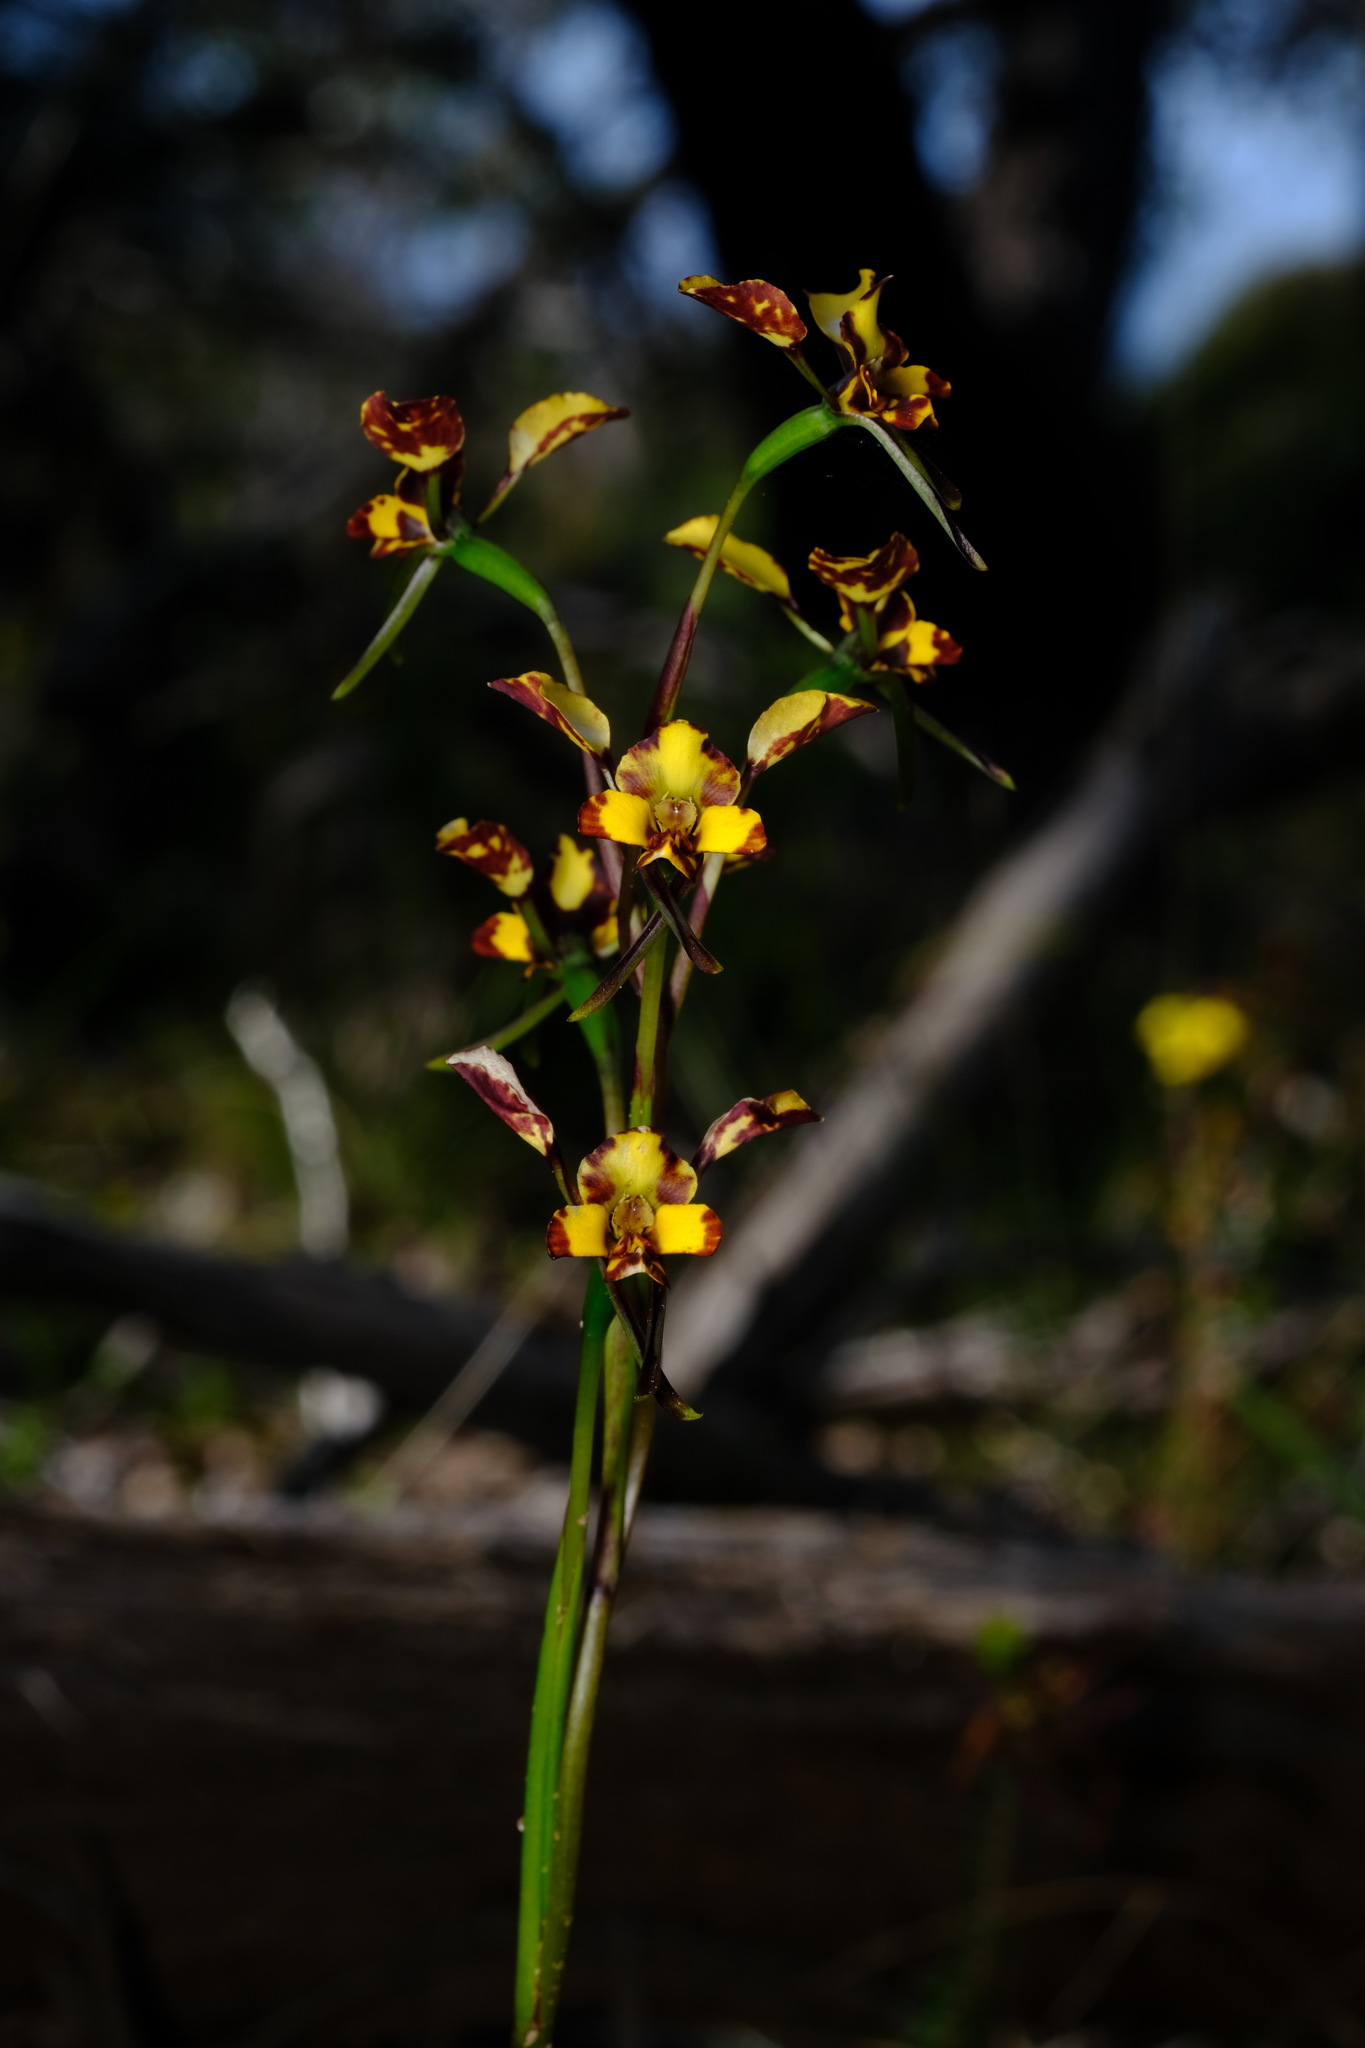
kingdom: Plantae
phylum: Tracheophyta
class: Liliopsida
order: Asparagales
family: Orchidaceae
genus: Diuris
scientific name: Diuris pardina
